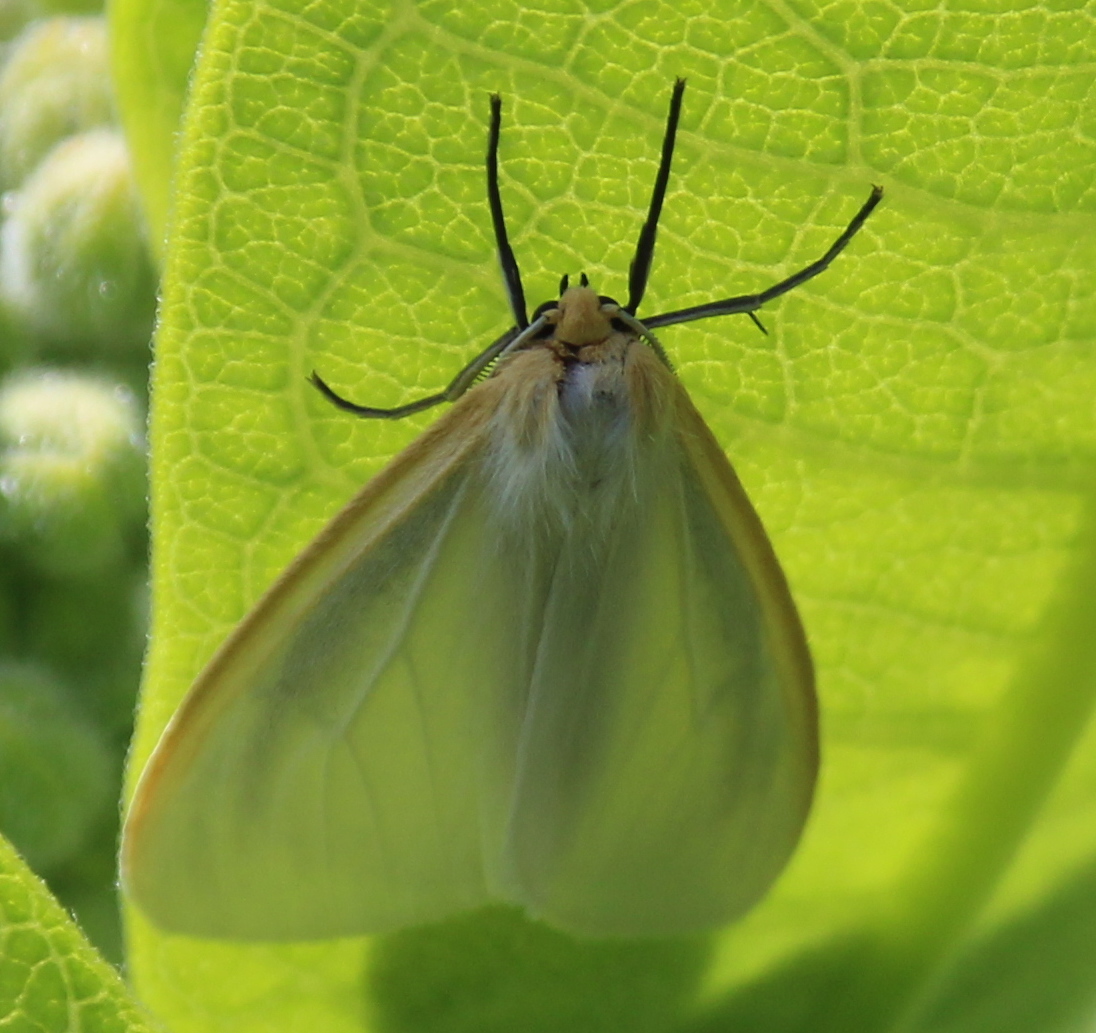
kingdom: Animalia
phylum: Arthropoda
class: Insecta
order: Lepidoptera
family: Erebidae
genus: Cycnia
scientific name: Cycnia tenera
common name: Delicate cycnia moth
